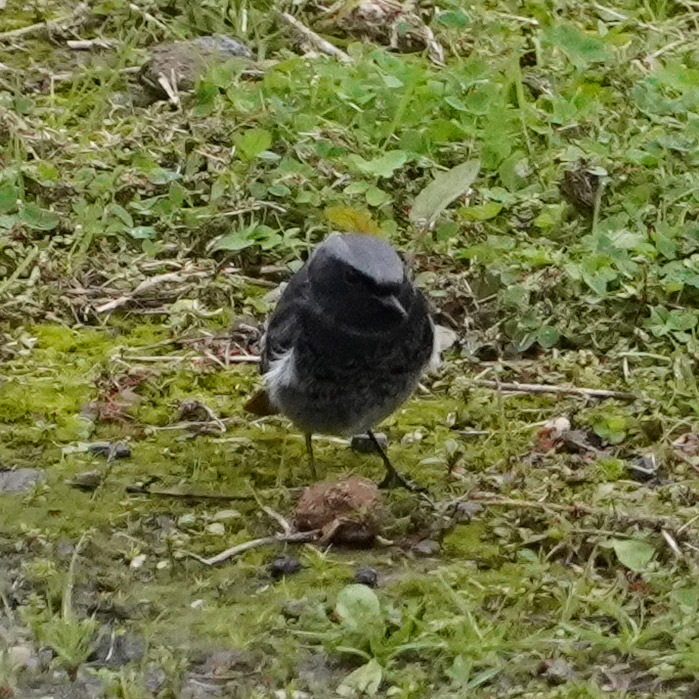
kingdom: Animalia
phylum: Chordata
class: Aves
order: Passeriformes
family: Muscicapidae
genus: Phoenicurus
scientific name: Phoenicurus ochruros
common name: Black redstart
